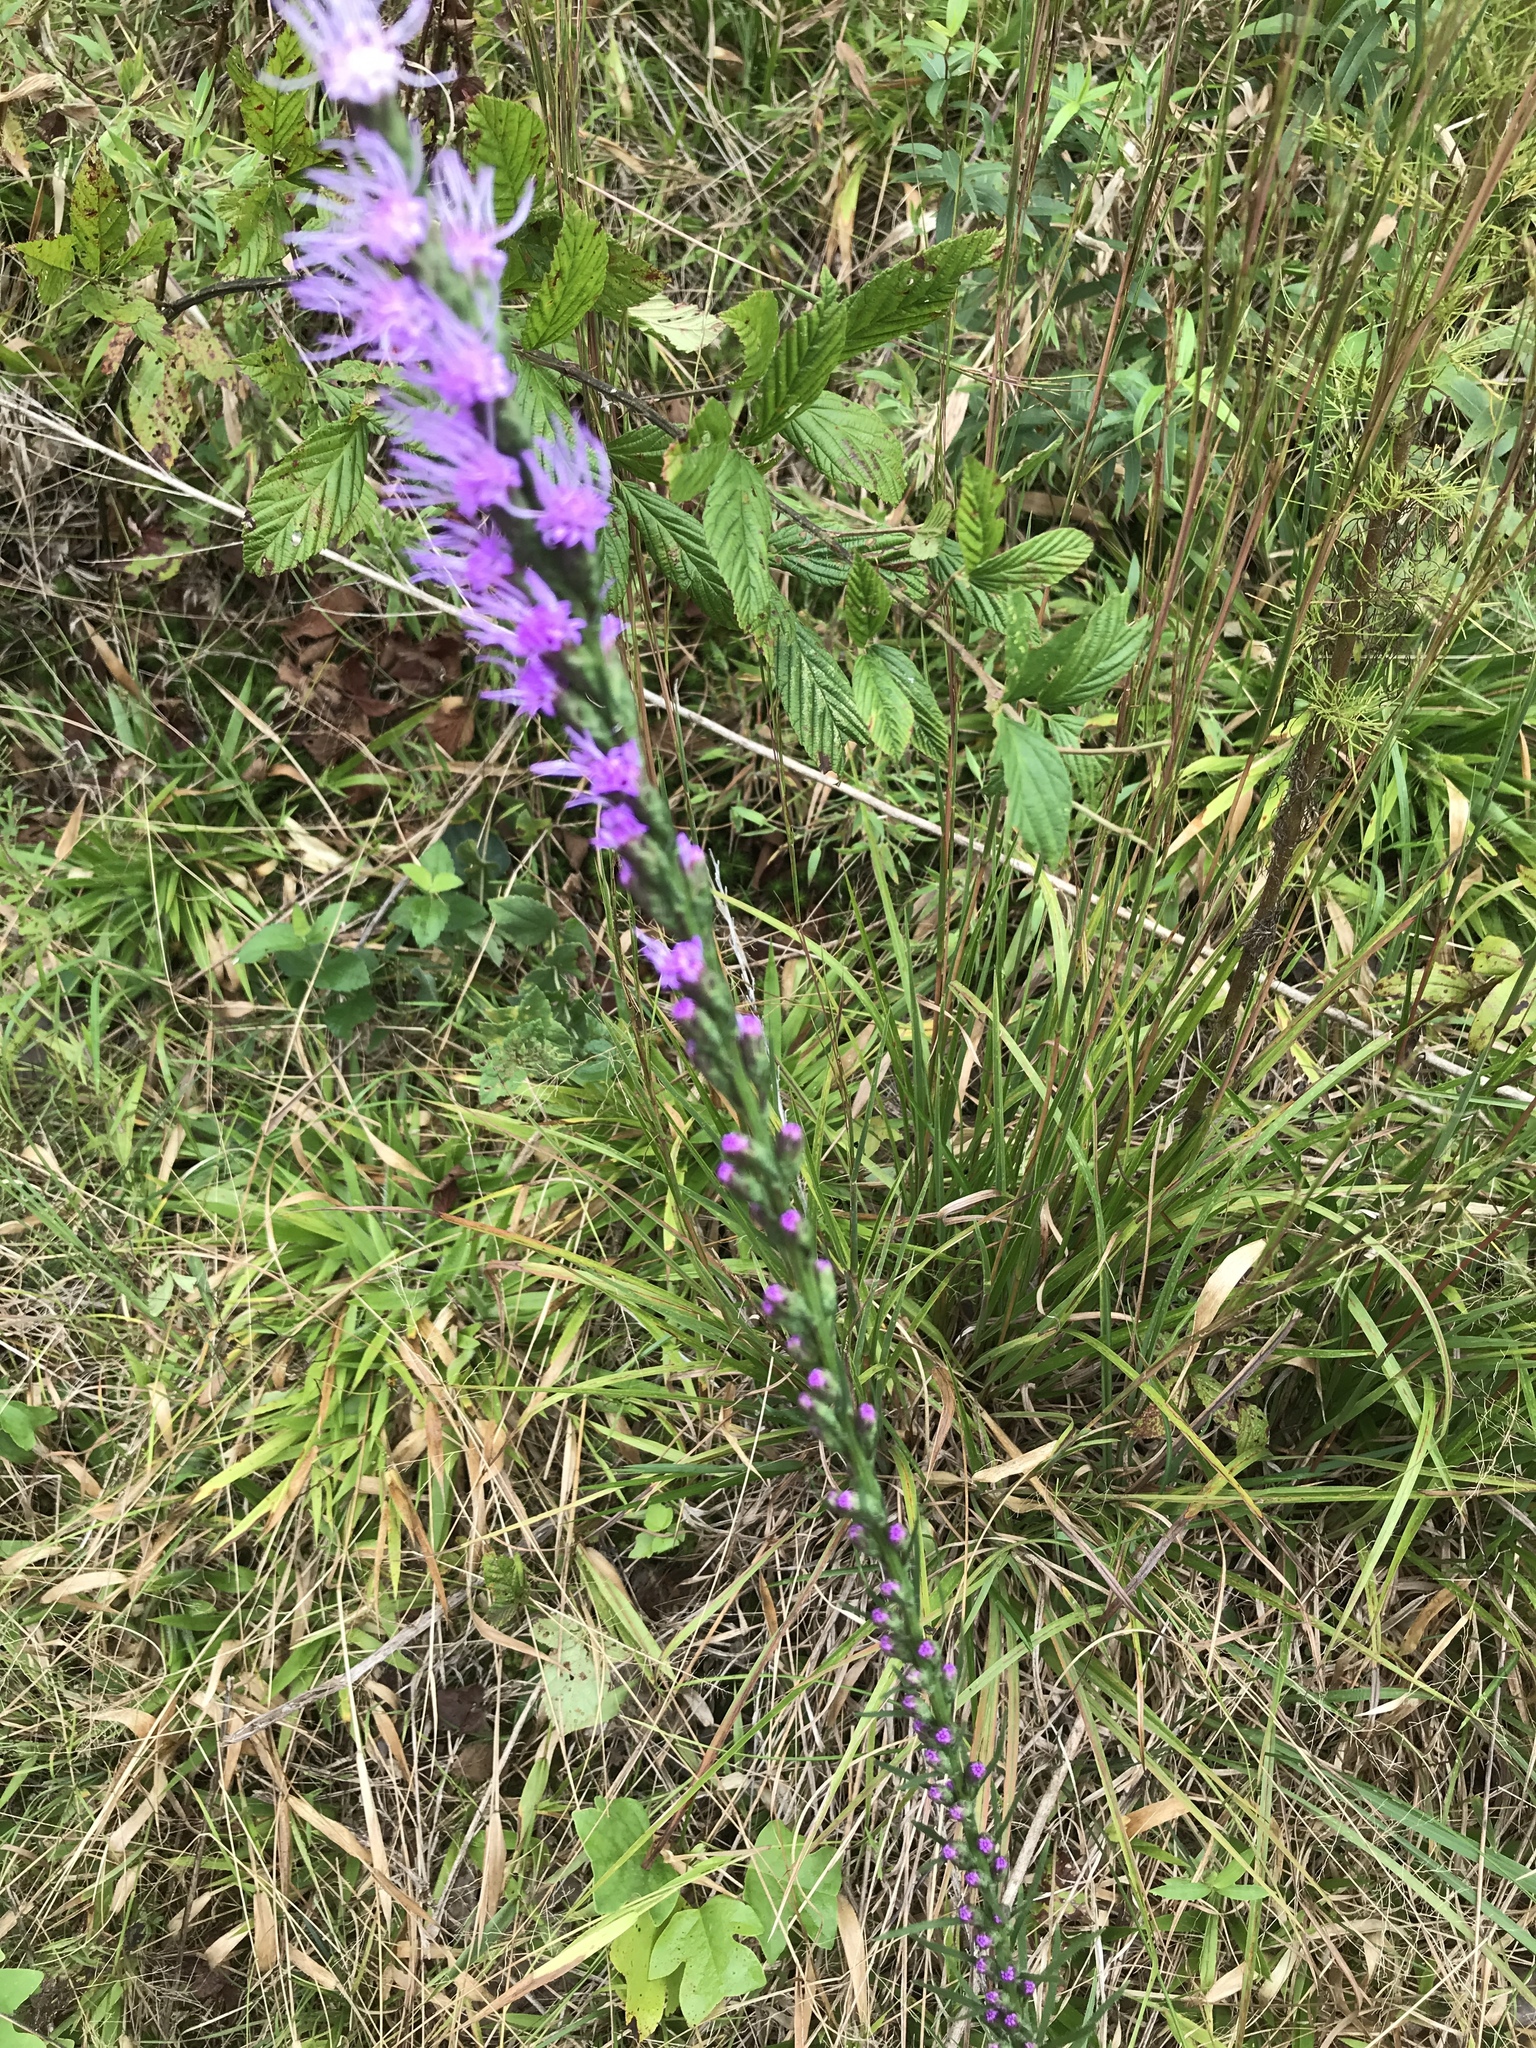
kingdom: Plantae
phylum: Tracheophyta
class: Magnoliopsida
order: Asterales
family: Asteraceae
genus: Liatris
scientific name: Liatris pilosa
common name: Grass-leaf gayfeather
